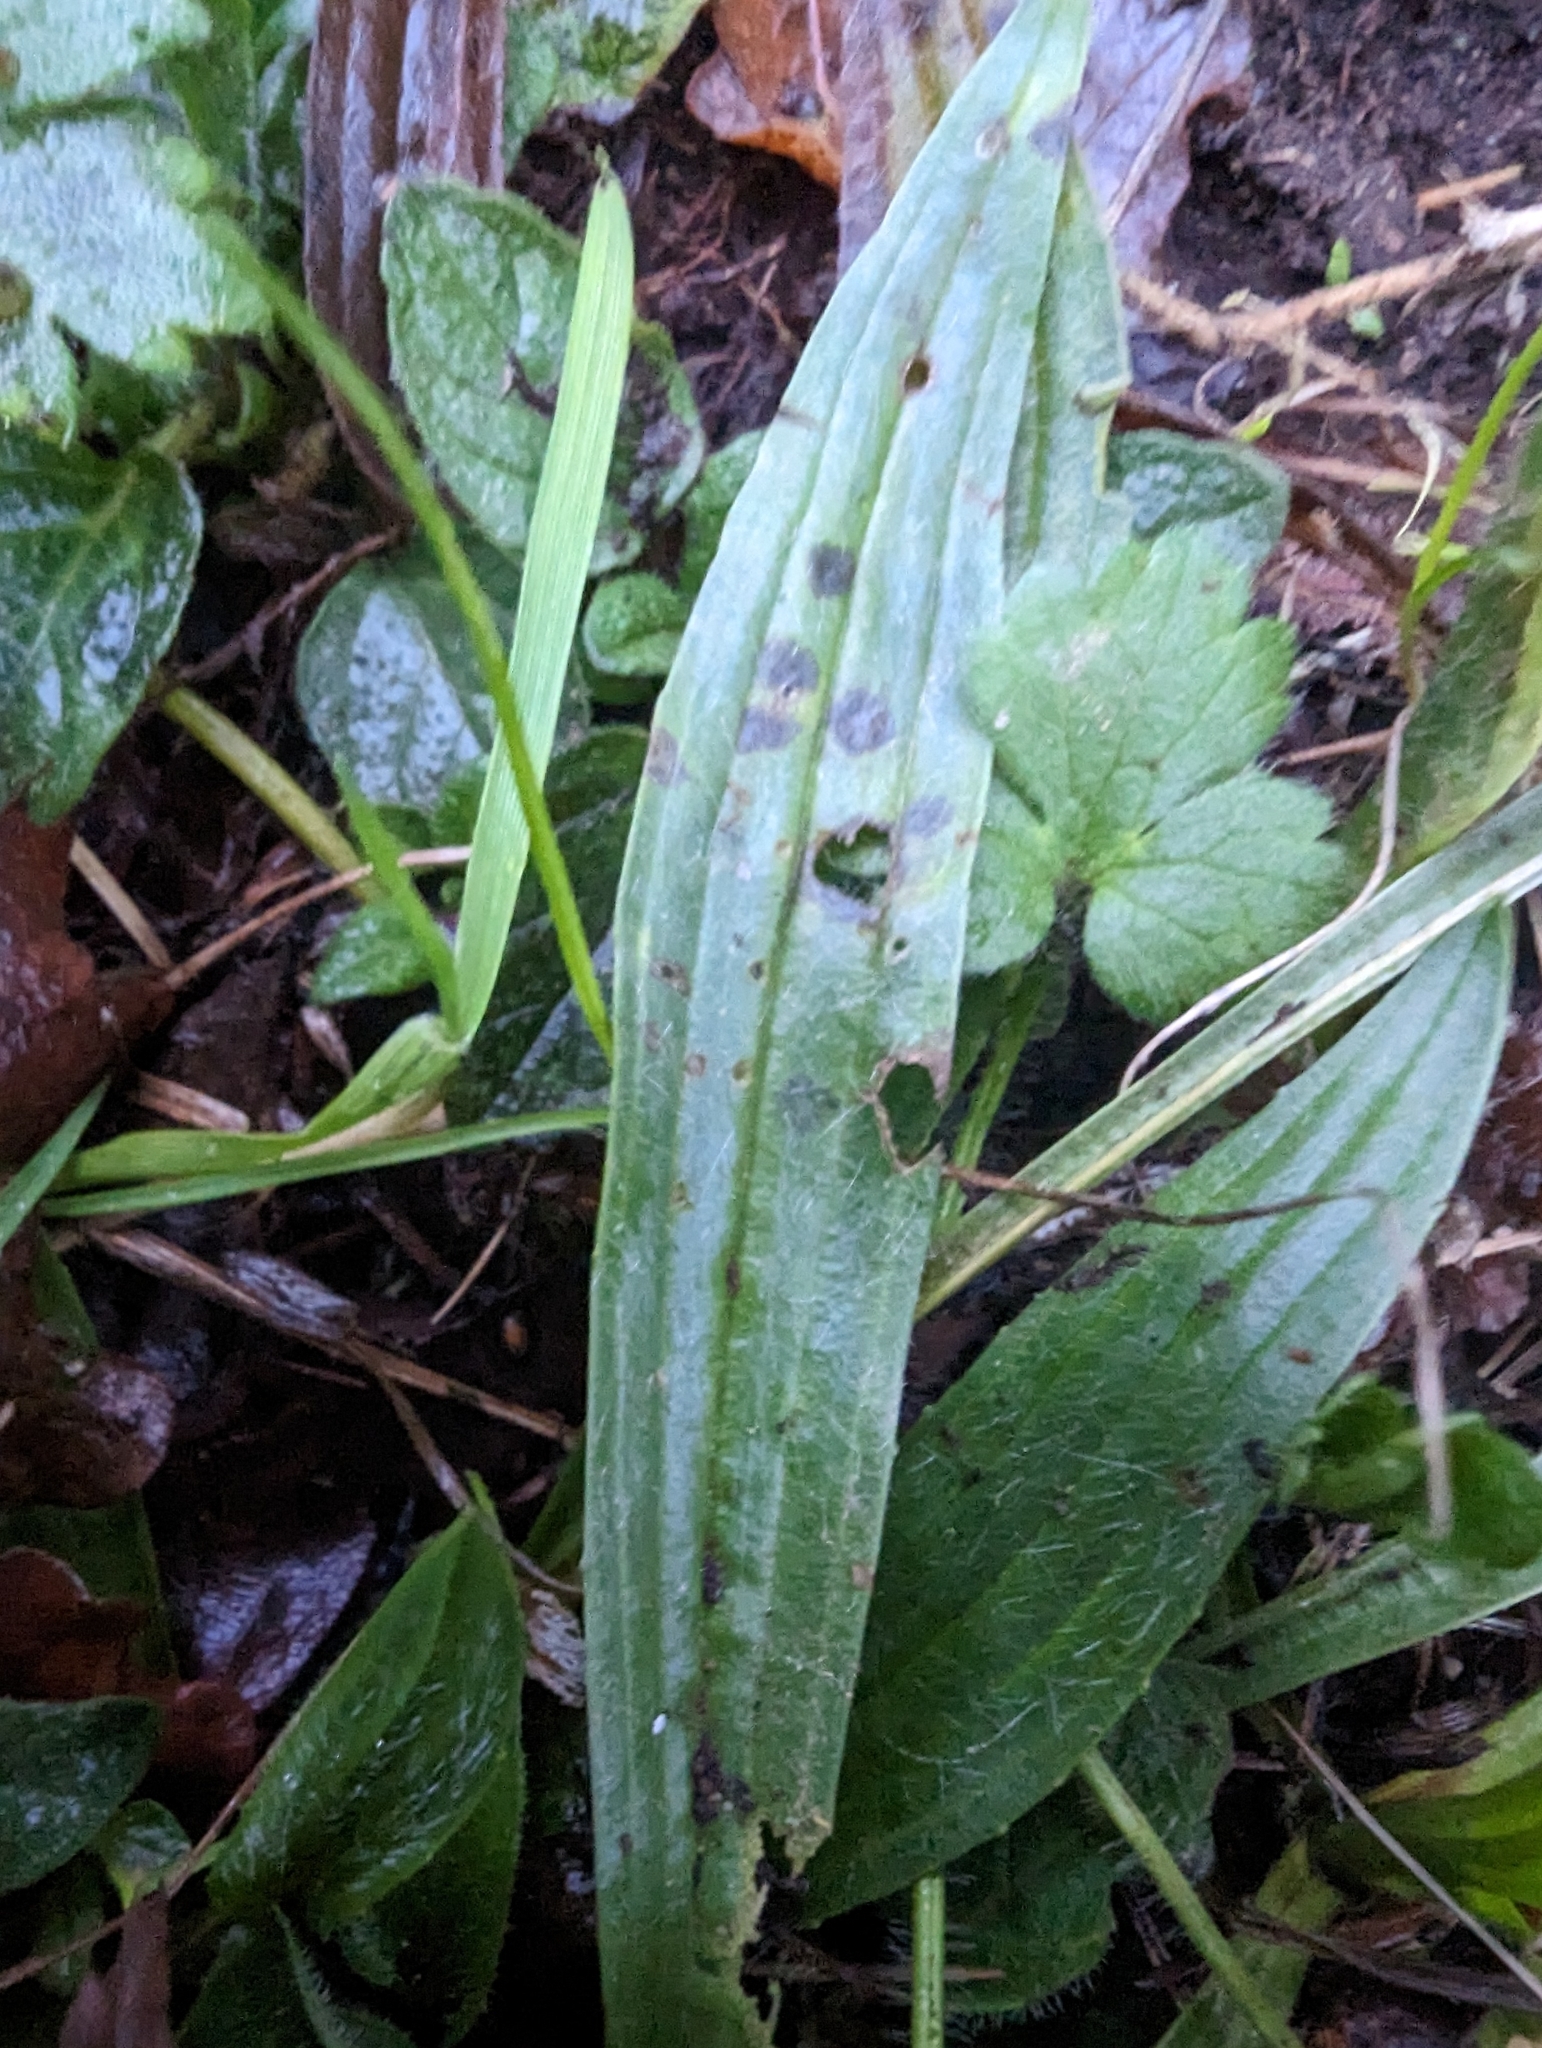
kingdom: Plantae
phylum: Tracheophyta
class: Magnoliopsida
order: Lamiales
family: Plantaginaceae
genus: Plantago
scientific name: Plantago lanceolata
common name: Ribwort plantain
